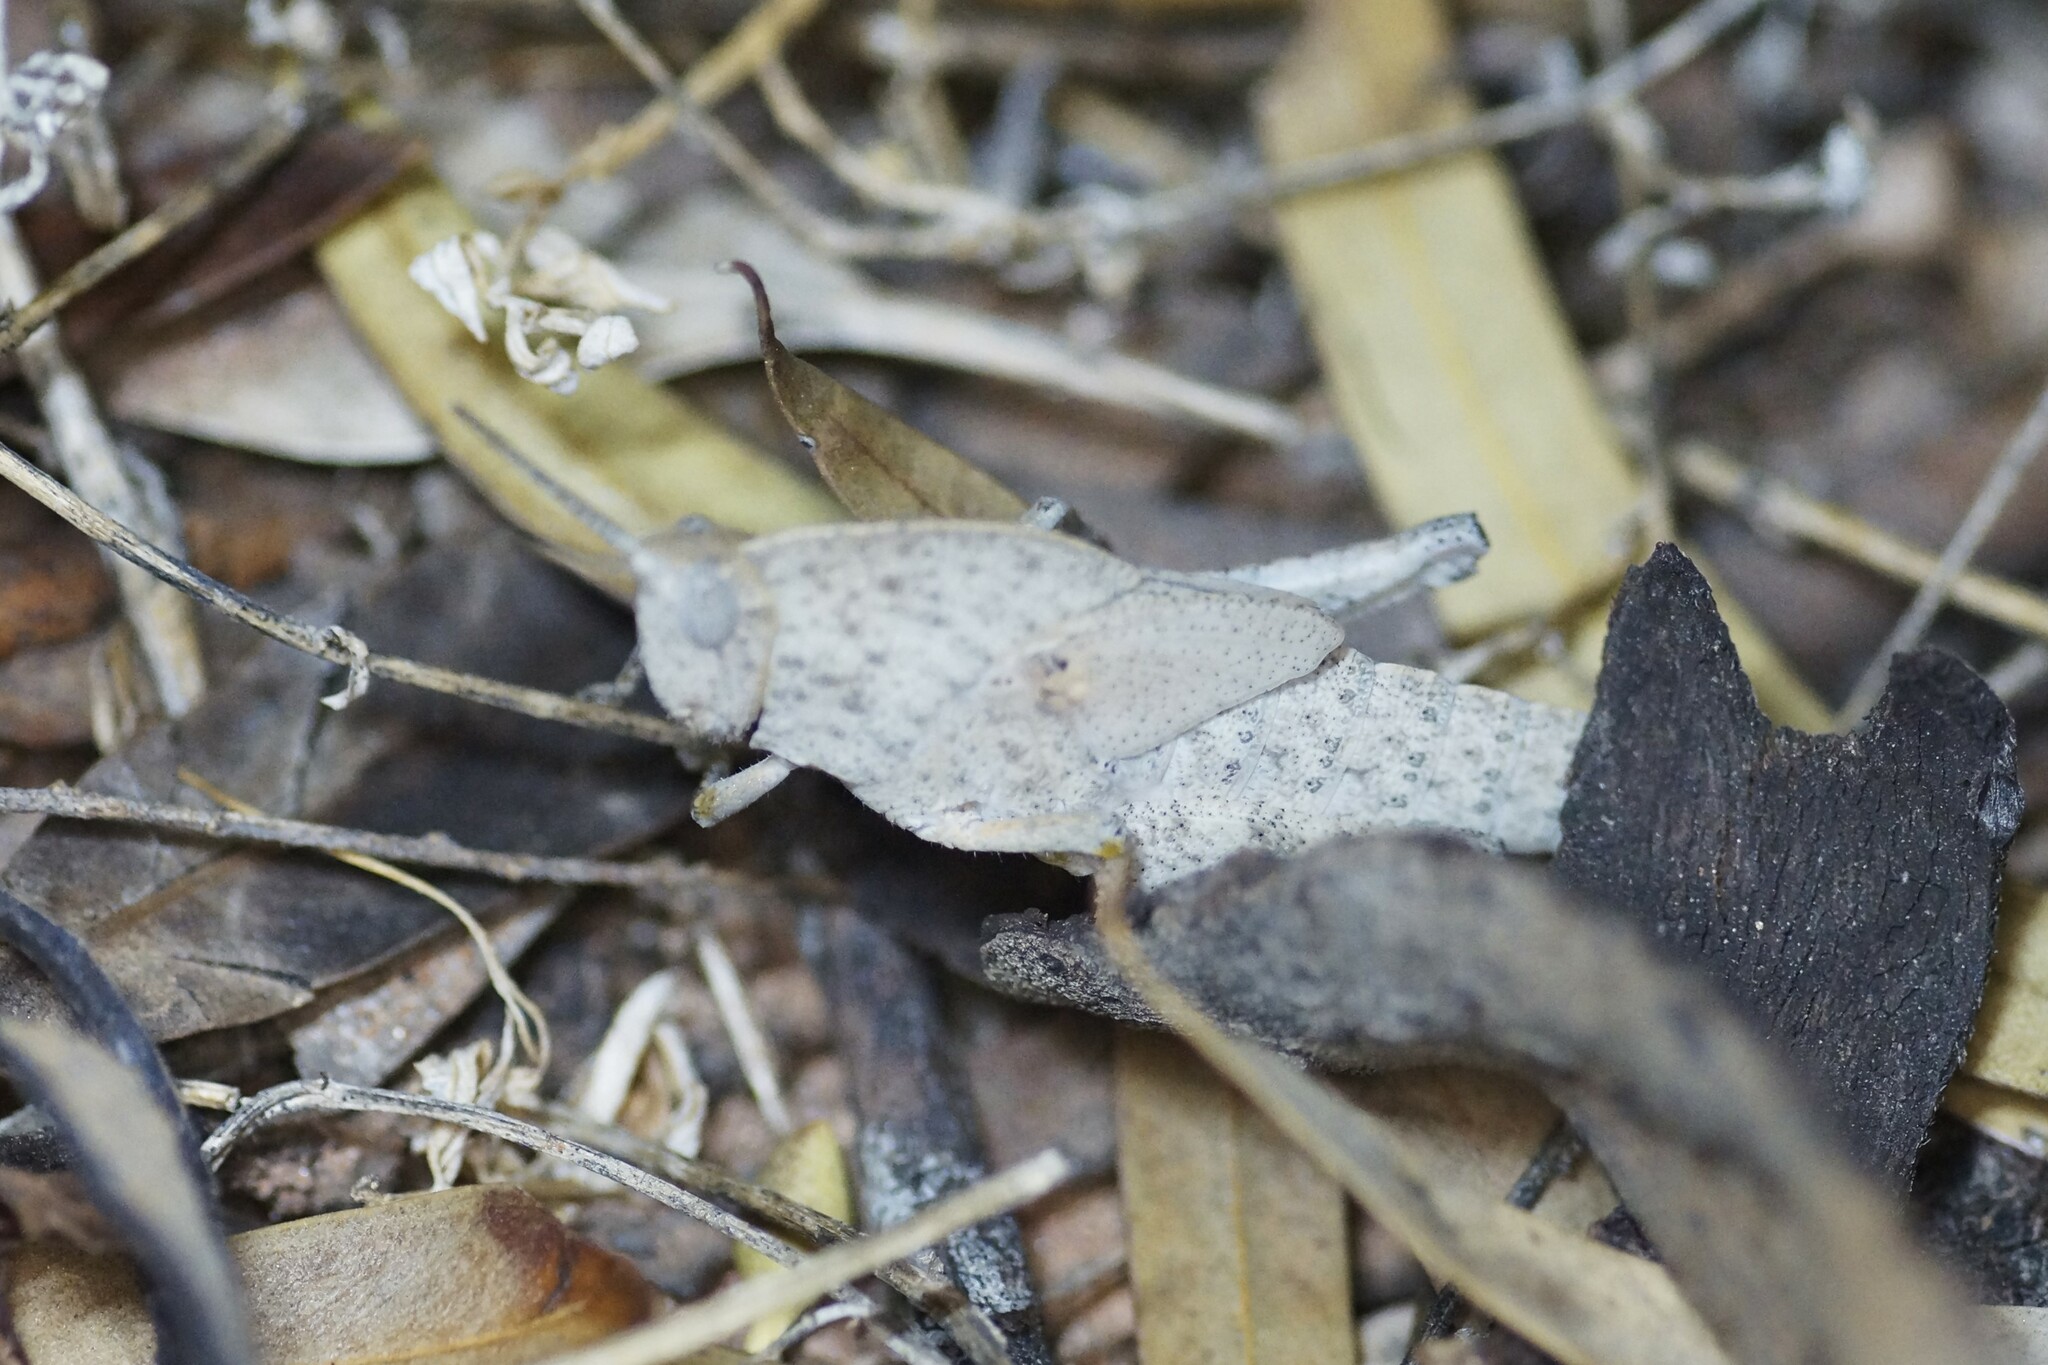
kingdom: Animalia
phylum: Arthropoda
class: Insecta
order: Orthoptera
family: Acrididae
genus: Goniaea
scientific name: Goniaea australasiae
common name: Gumleaf grasshopper
